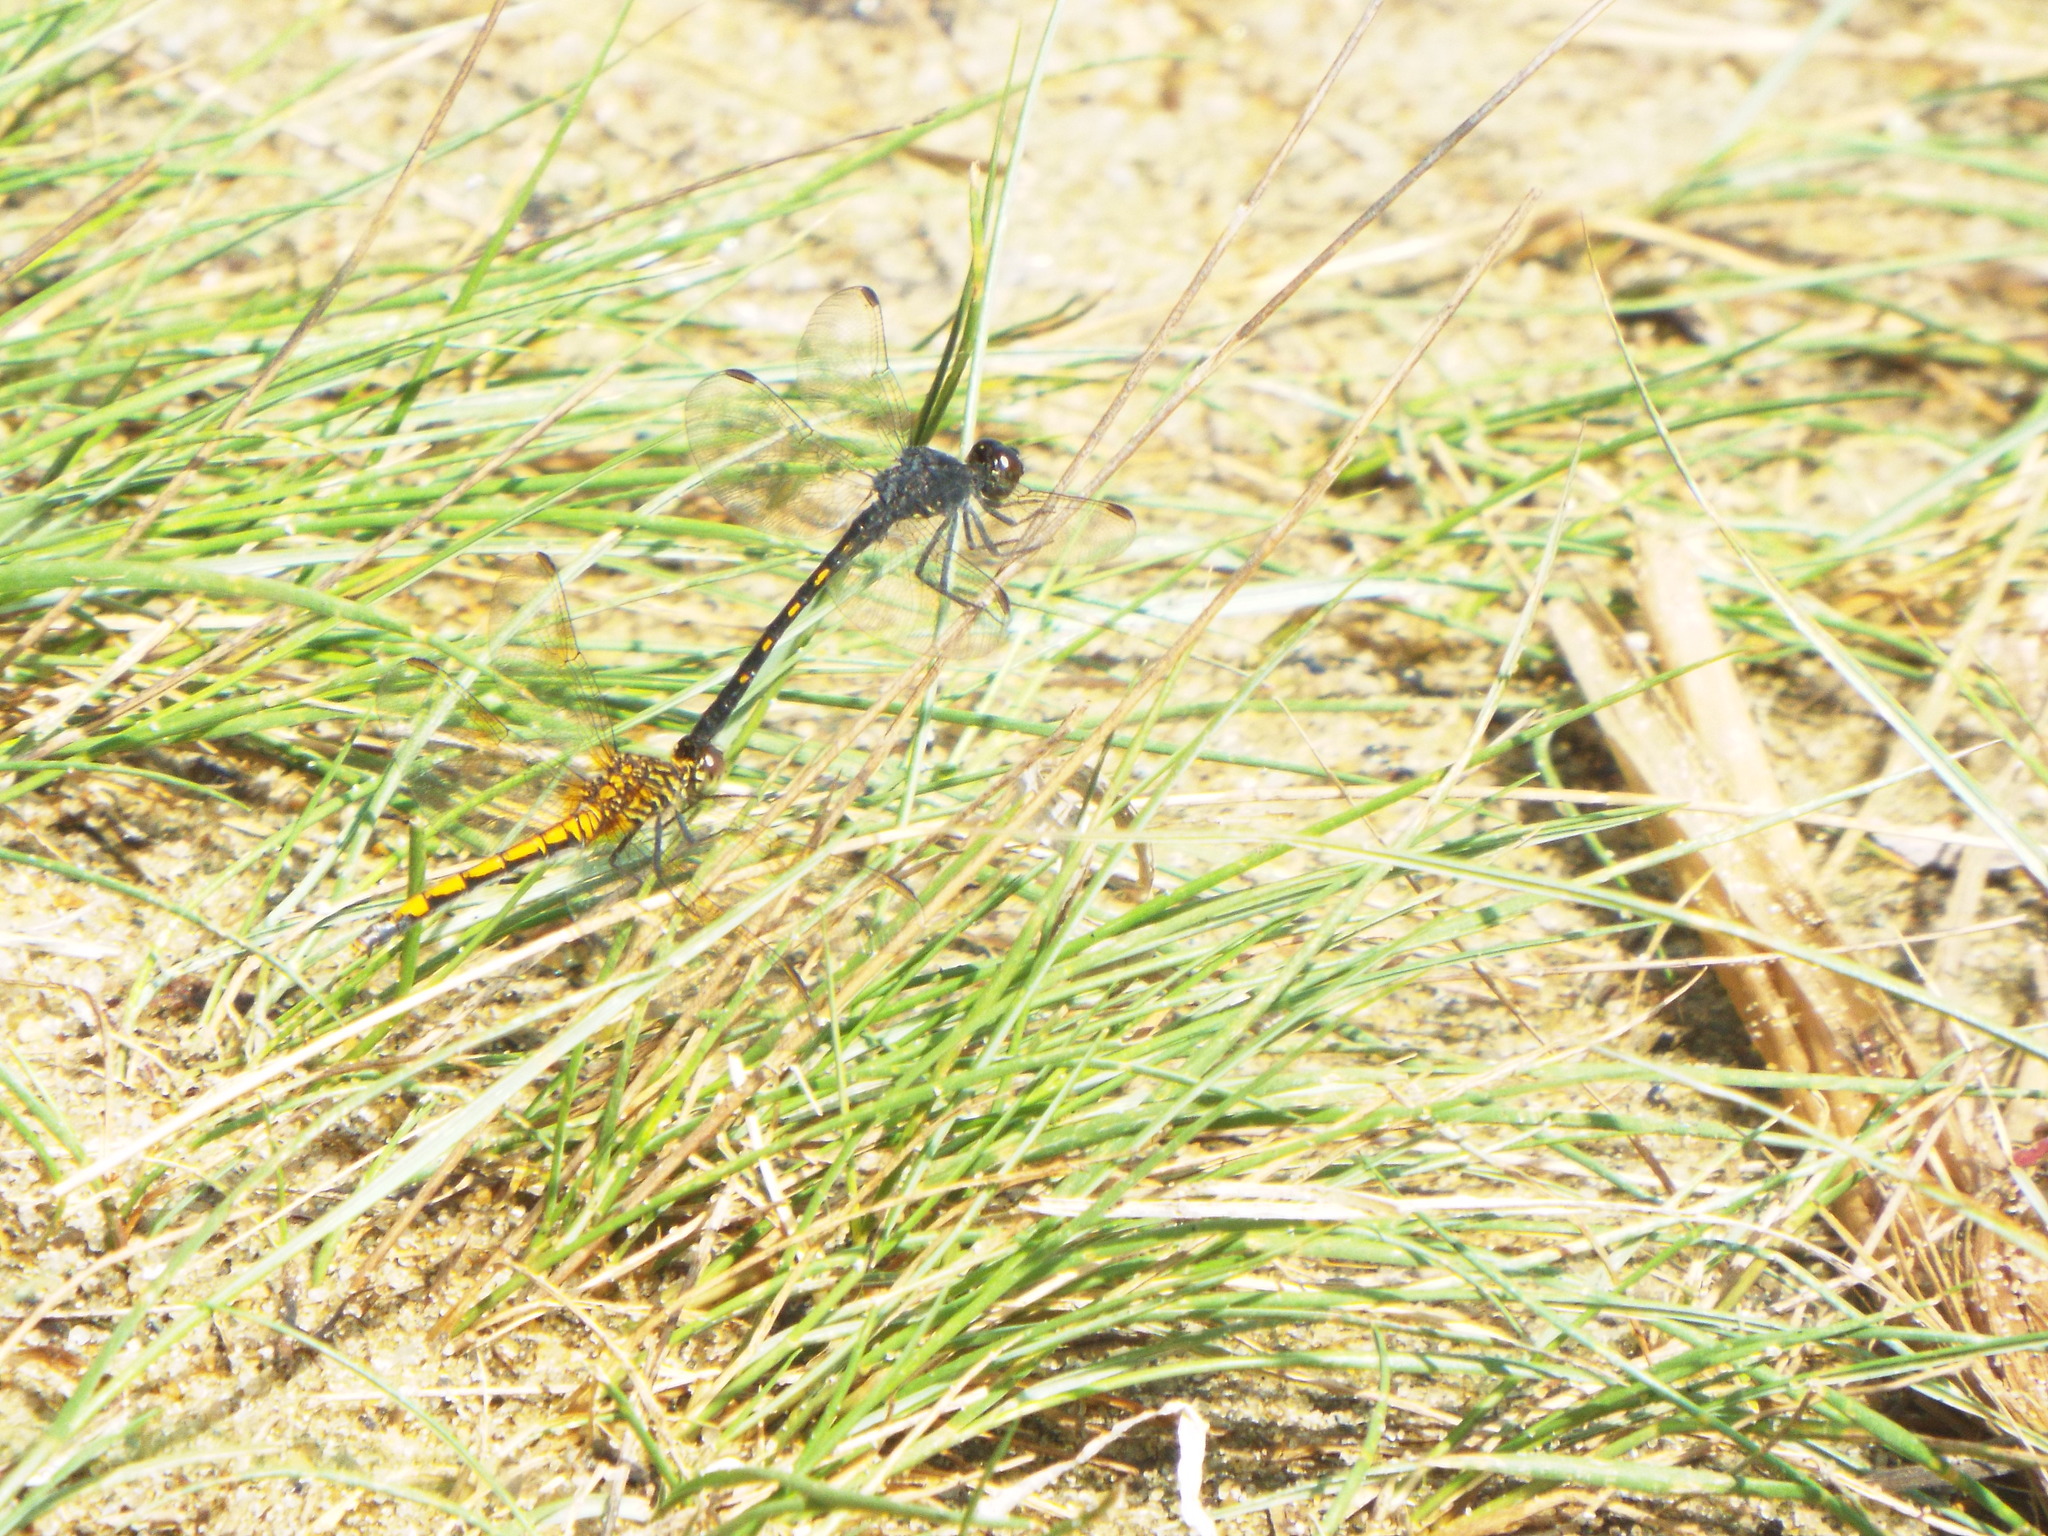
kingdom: Animalia
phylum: Arthropoda
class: Insecta
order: Odonata
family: Libellulidae
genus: Erythrodiplax
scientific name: Erythrodiplax berenice
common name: Seaside dragonlet
